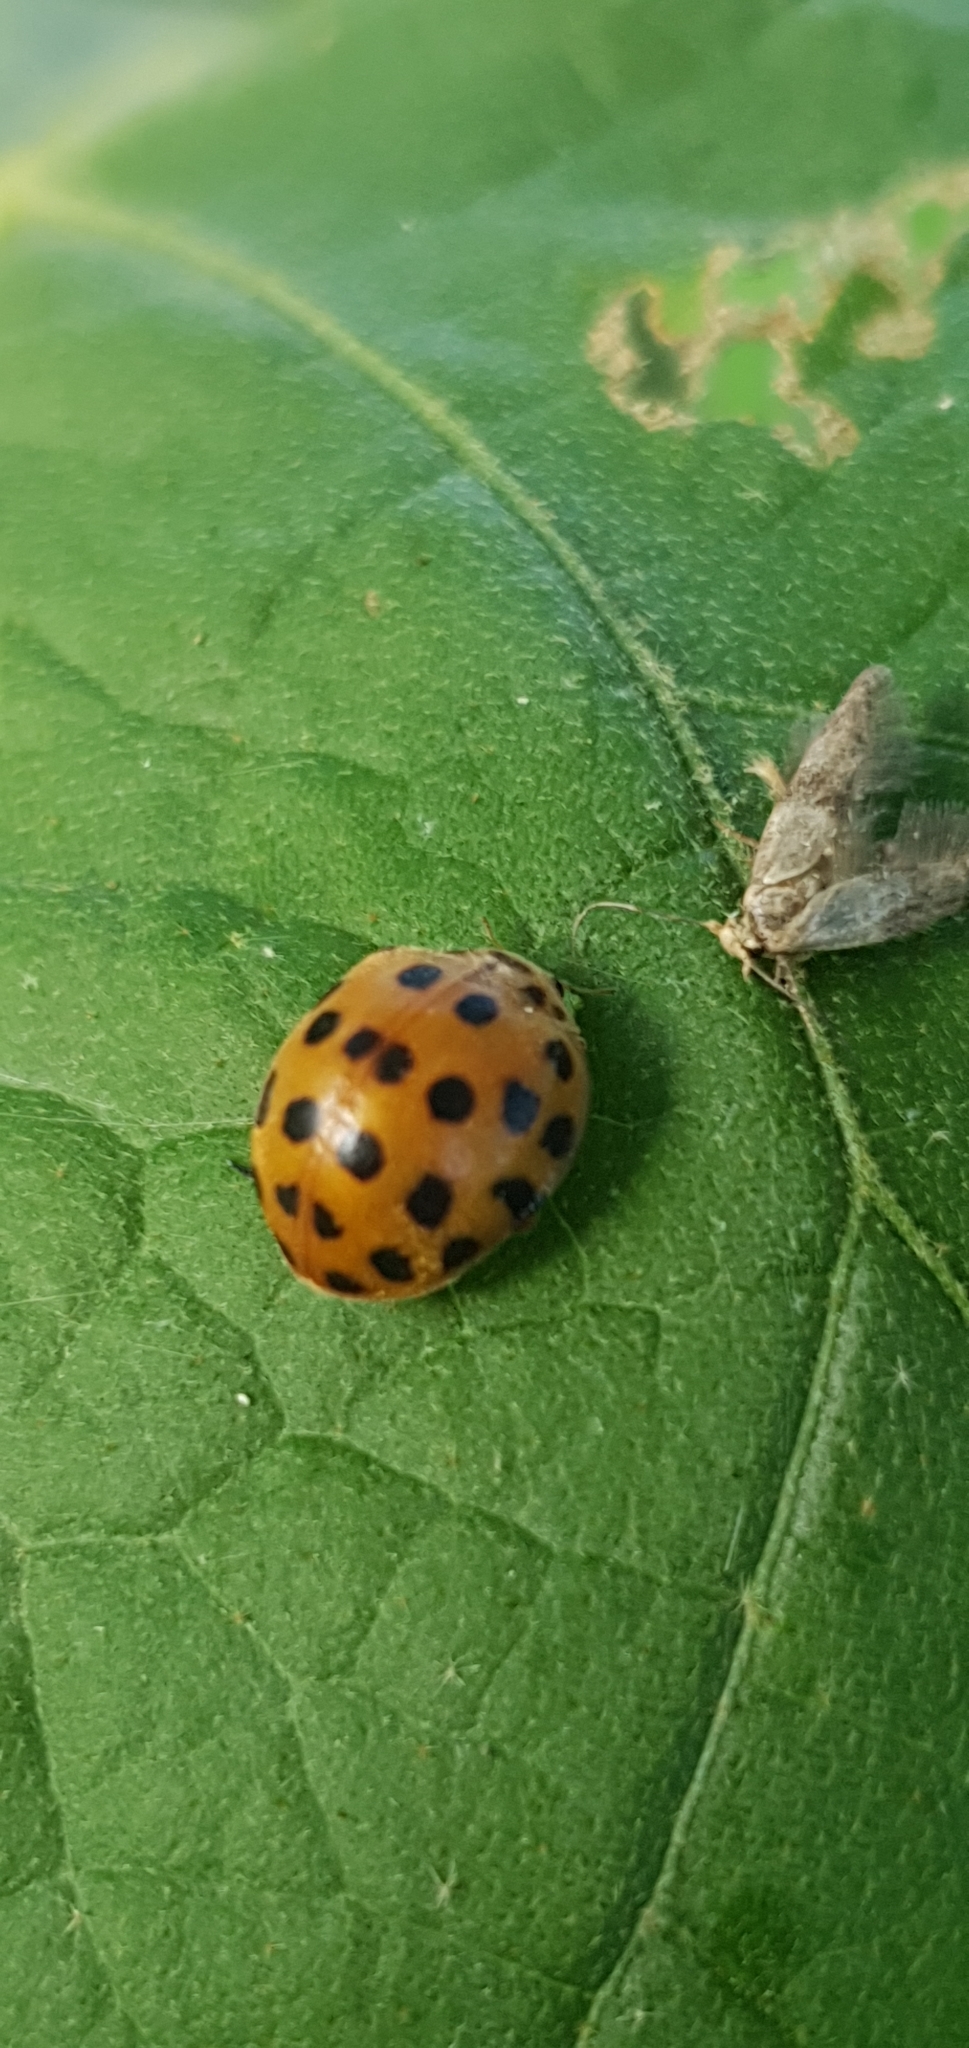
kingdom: Animalia
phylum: Arthropoda
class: Insecta
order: Coleoptera
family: Coccinellidae
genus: Henosepilachna
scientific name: Henosepilachna vigintioctopunctata
